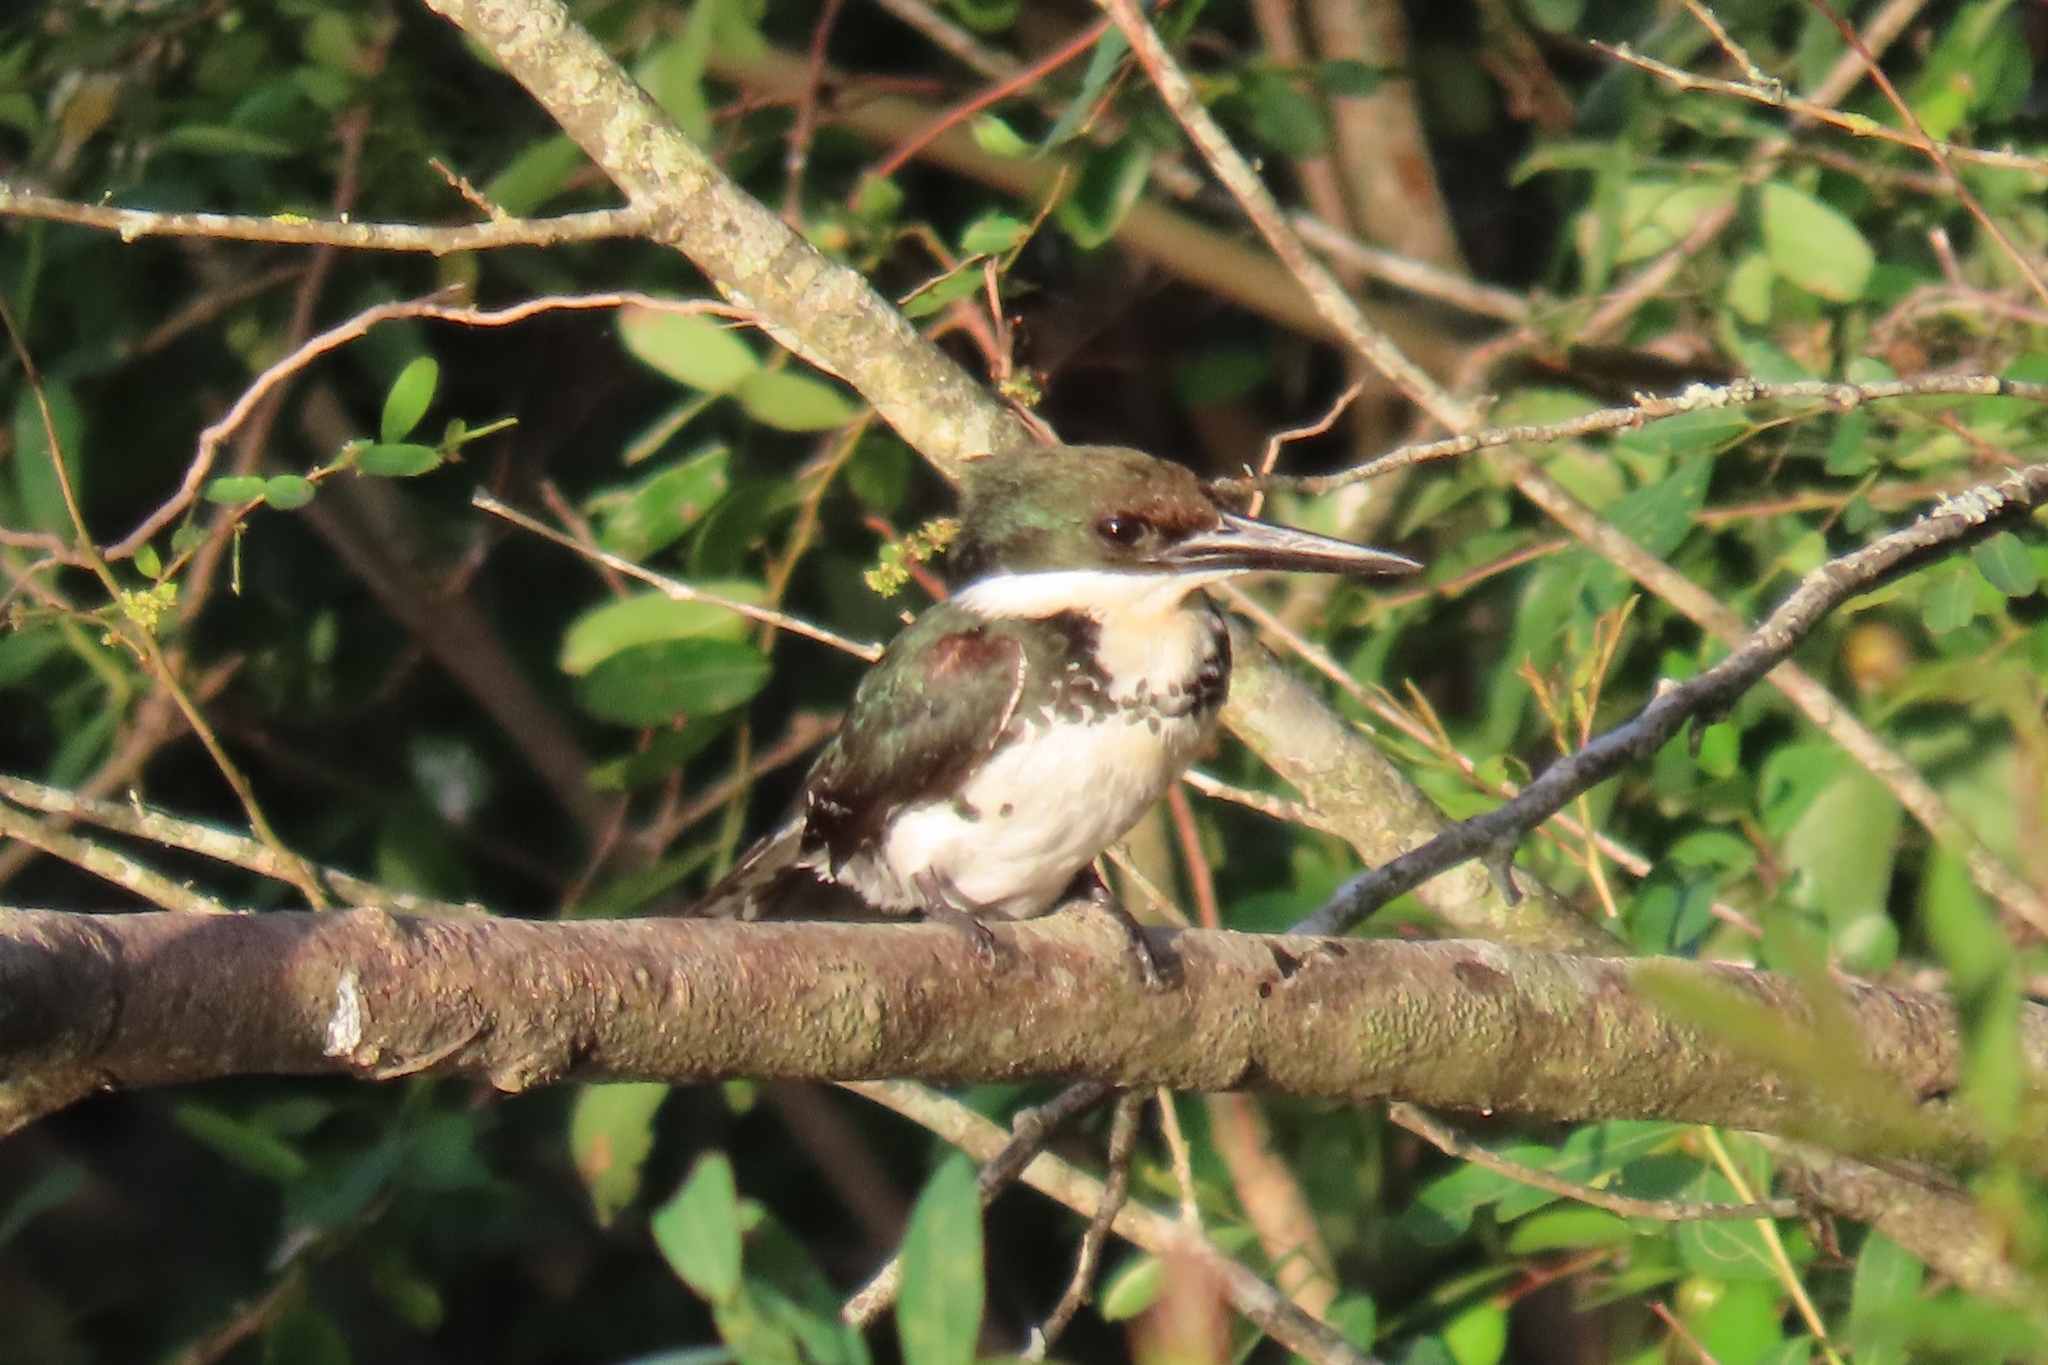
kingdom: Animalia
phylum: Chordata
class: Aves
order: Coraciiformes
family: Alcedinidae
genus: Chloroceryle
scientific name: Chloroceryle americana
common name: Green kingfisher
